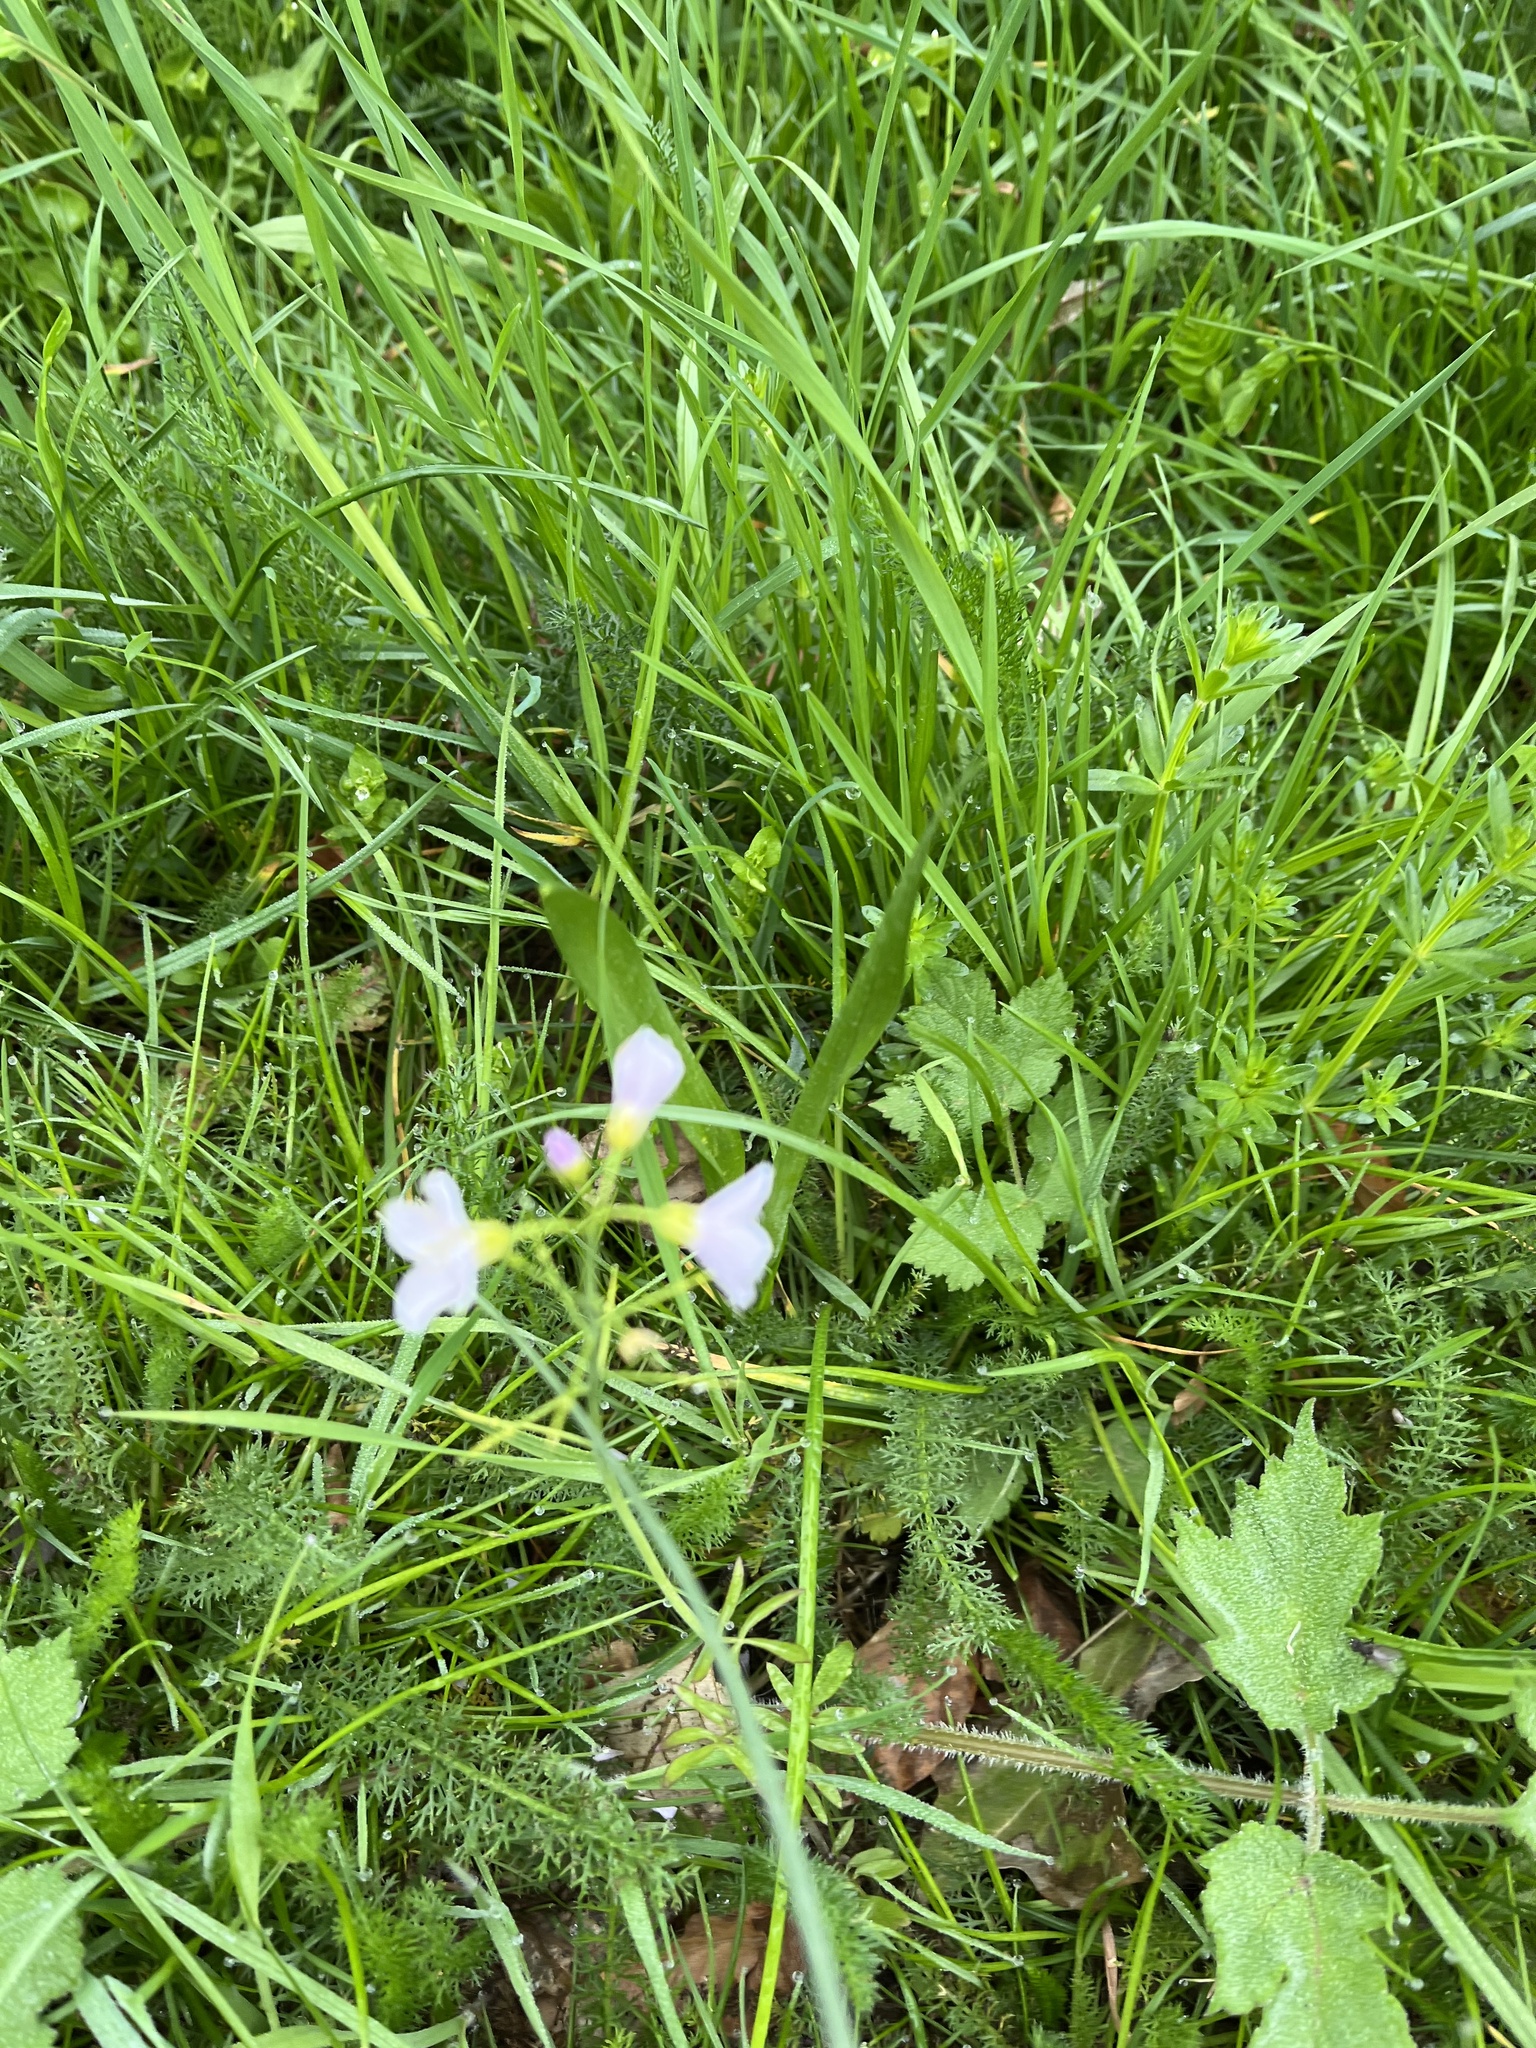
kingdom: Plantae
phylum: Tracheophyta
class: Magnoliopsida
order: Brassicales
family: Brassicaceae
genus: Cardamine
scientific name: Cardamine pratensis
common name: Cuckoo flower
